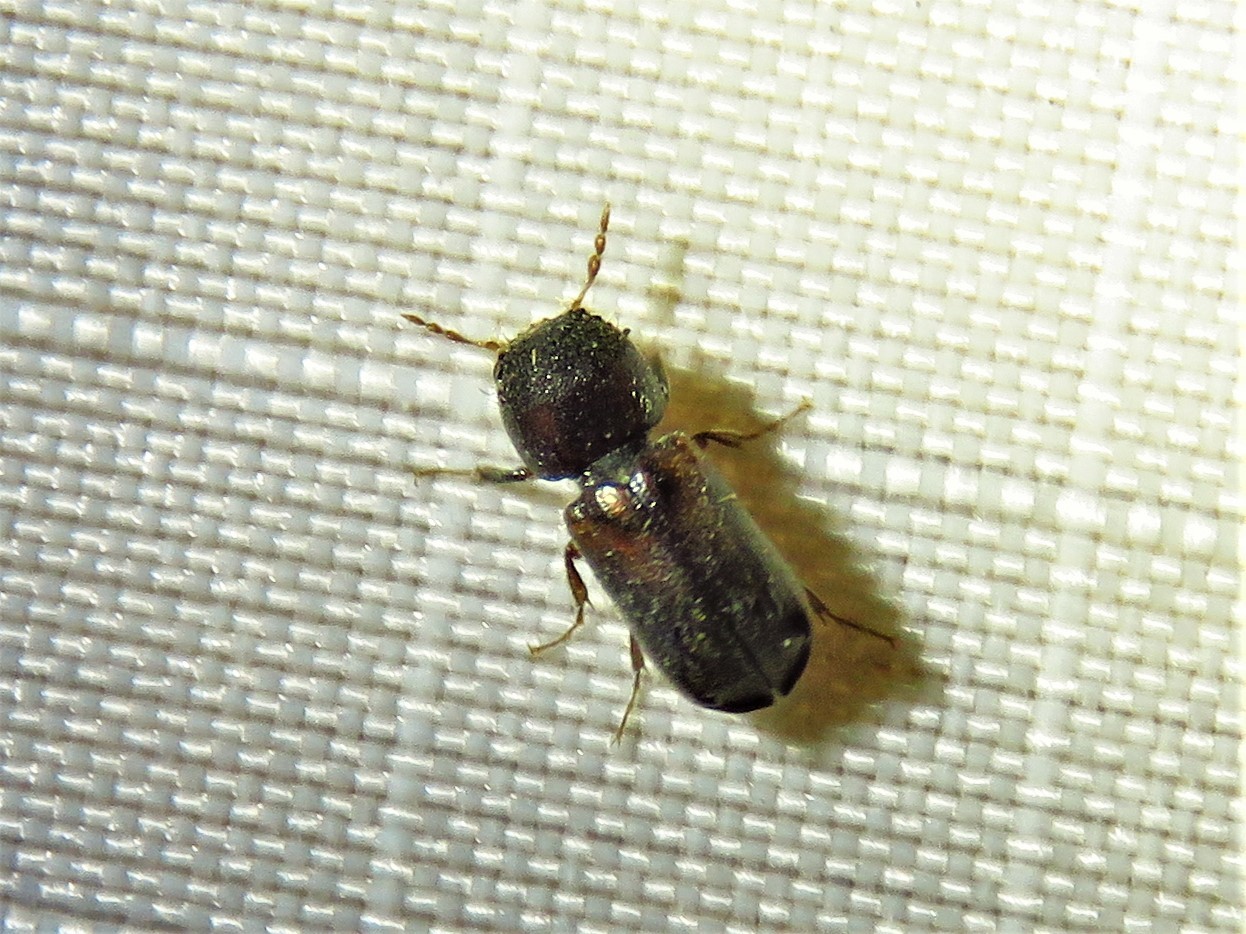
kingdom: Animalia
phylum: Arthropoda
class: Insecta
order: Coleoptera
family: Bostrichidae
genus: Xylobiops
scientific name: Xylobiops basilaris
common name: Red-shouldered bostrichid
